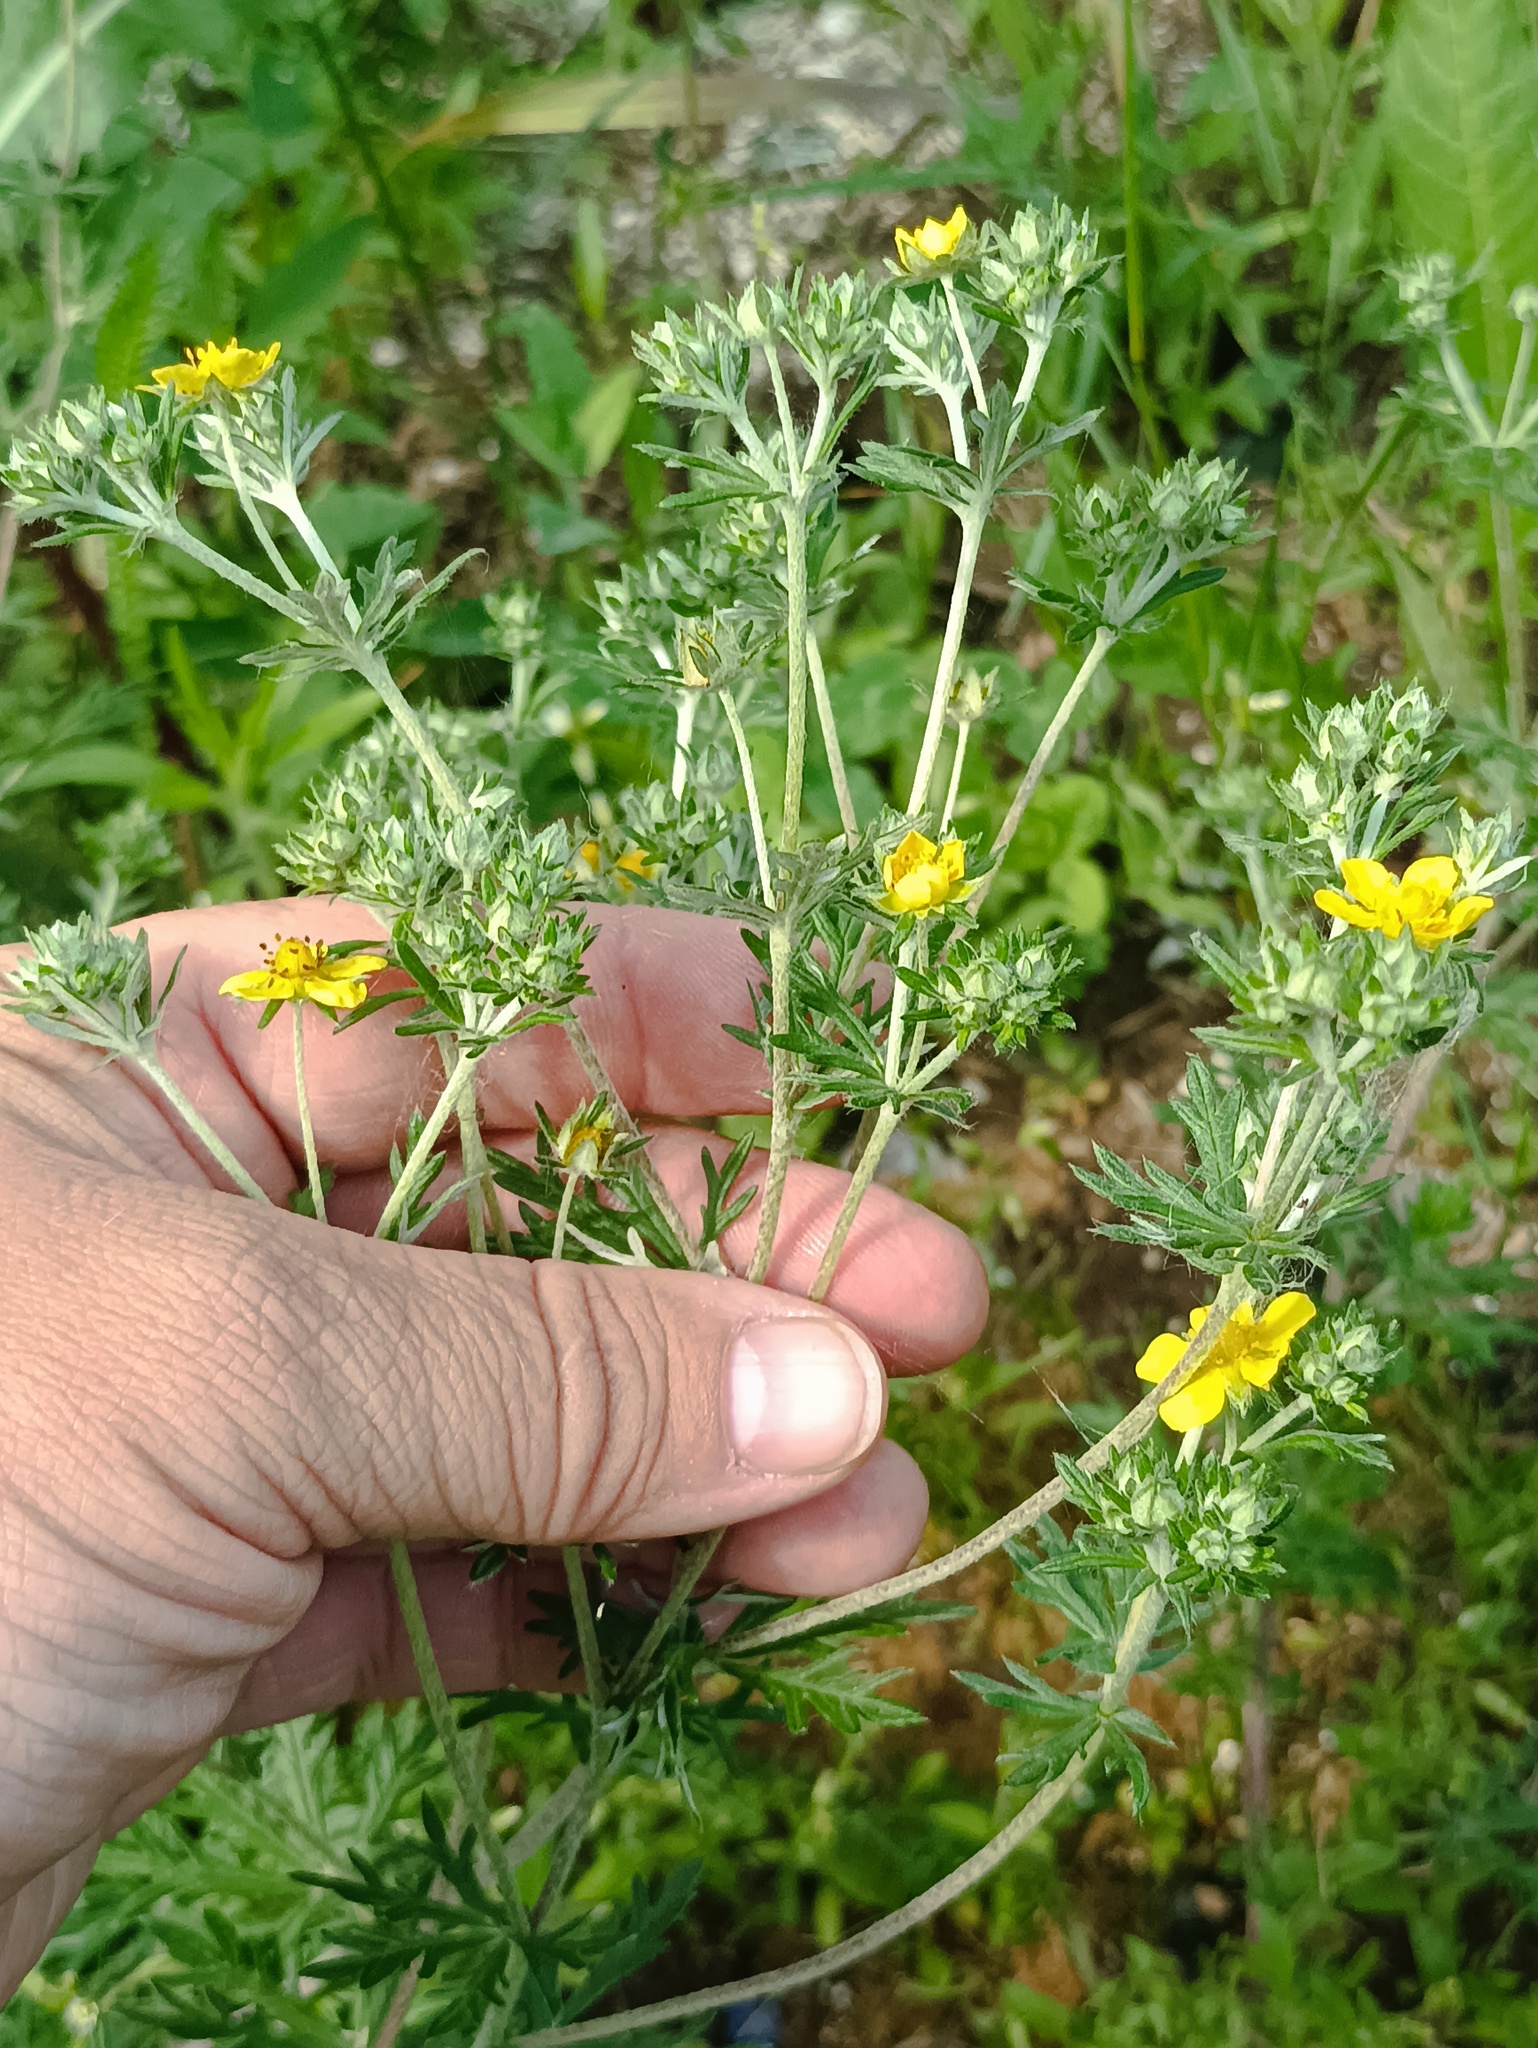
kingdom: Plantae
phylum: Tracheophyta
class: Magnoliopsida
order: Rosales
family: Rosaceae
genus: Potentilla
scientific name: Potentilla argentea
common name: Hoary cinquefoil
